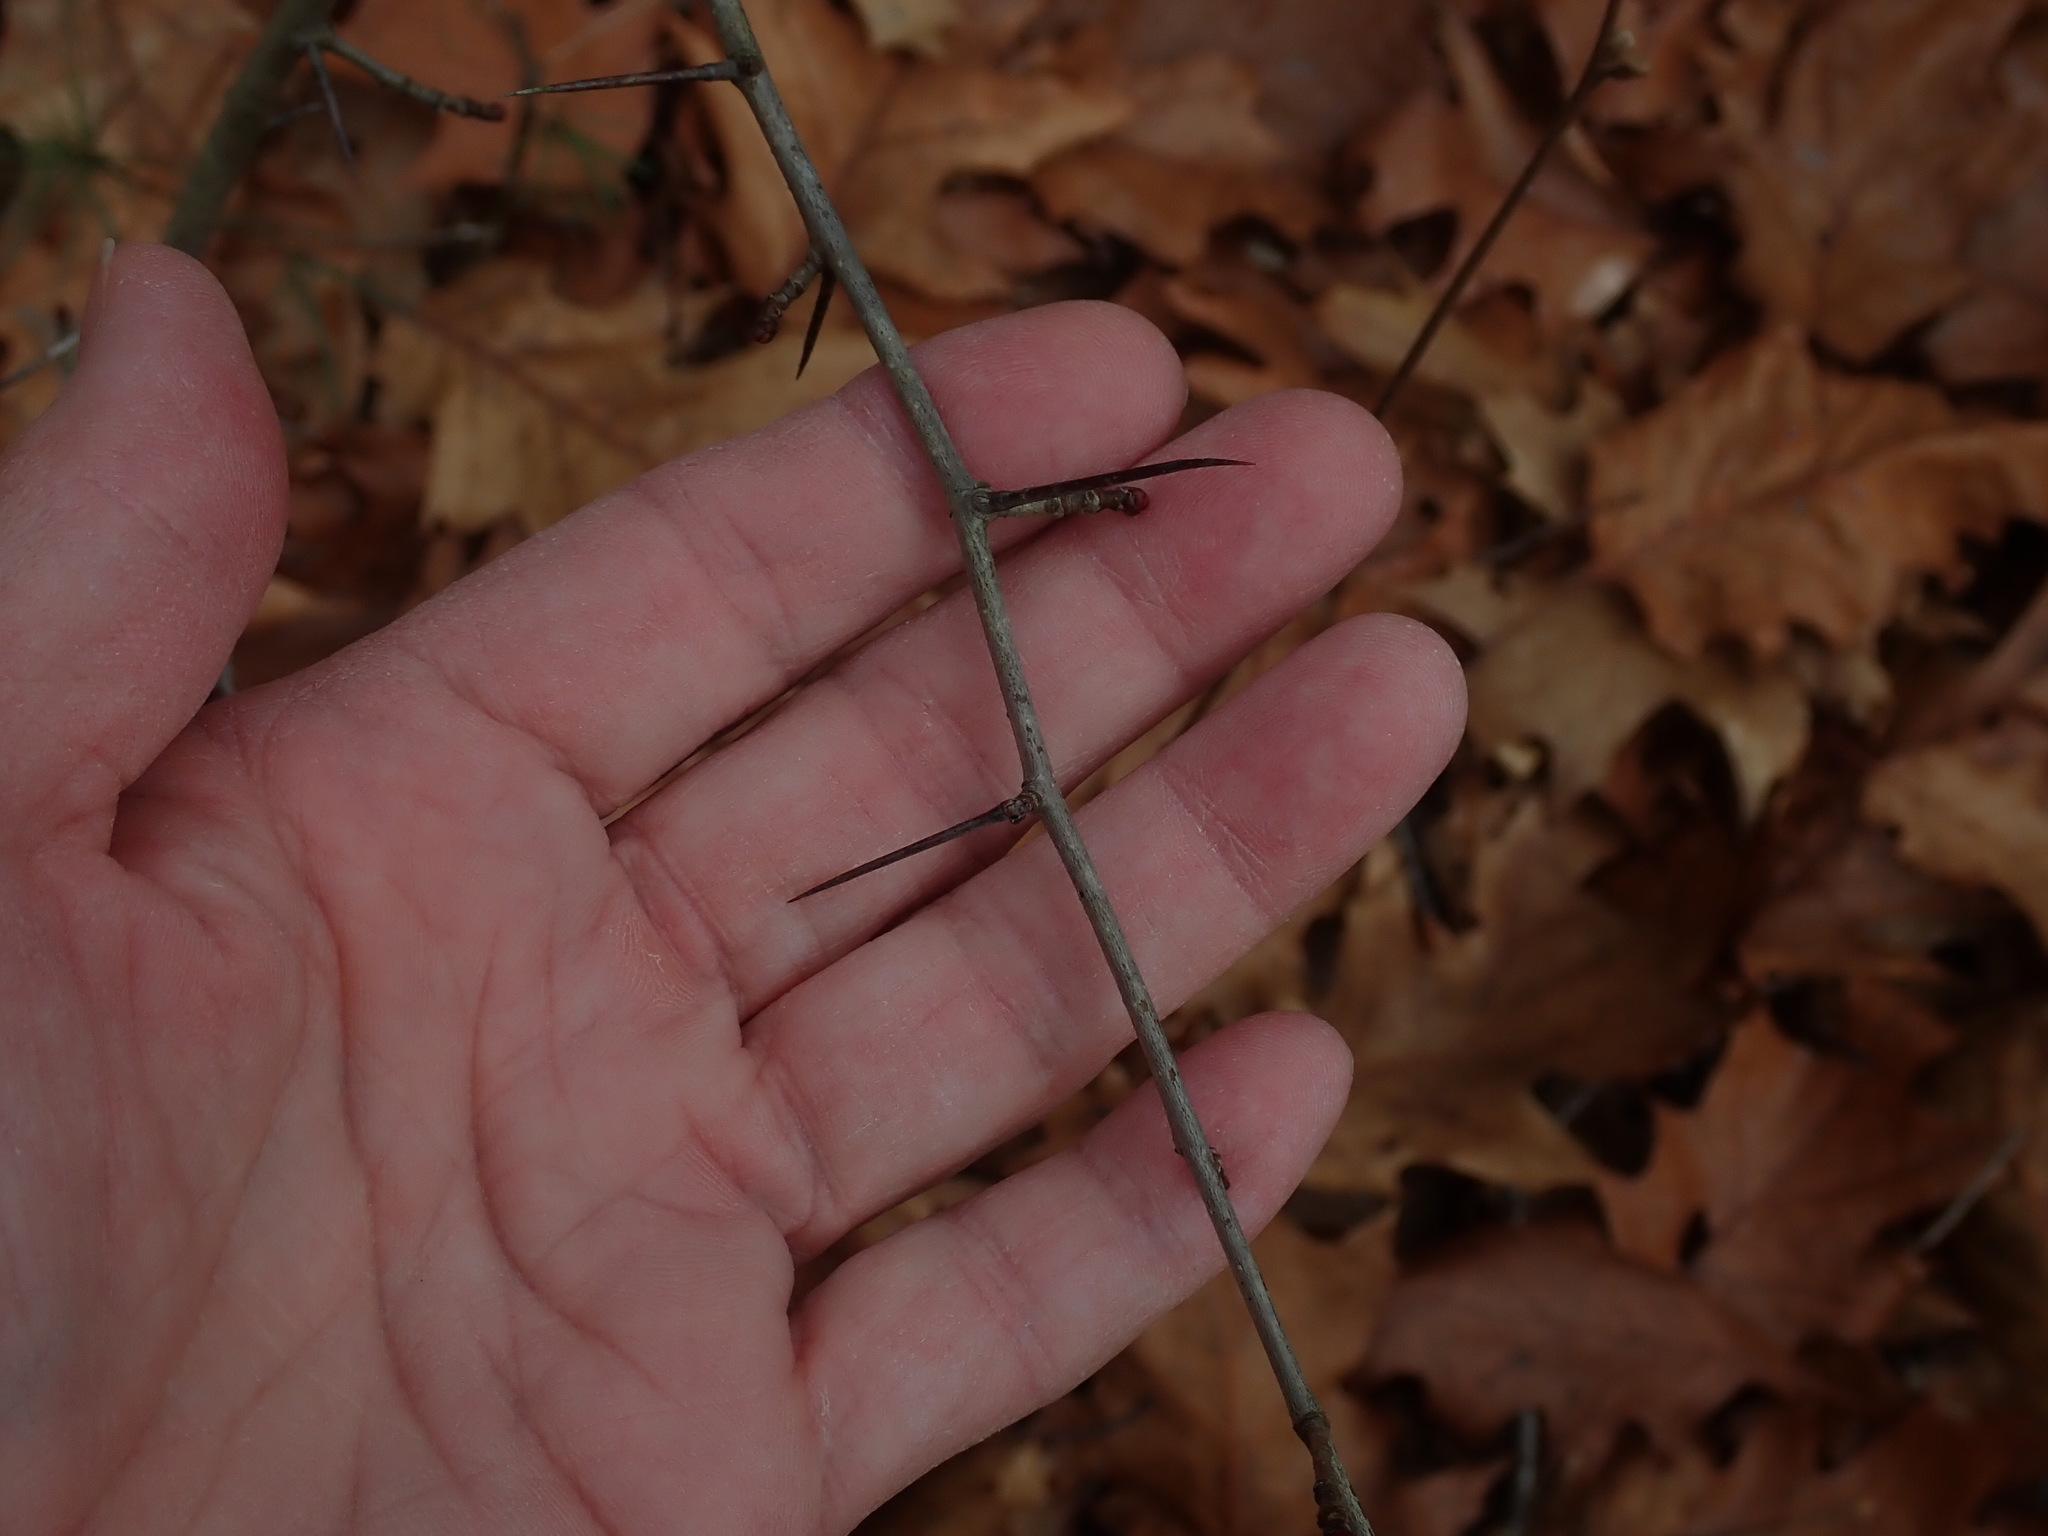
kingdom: Plantae
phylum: Tracheophyta
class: Magnoliopsida
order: Rosales
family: Rosaceae
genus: Crataegus
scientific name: Crataegus
